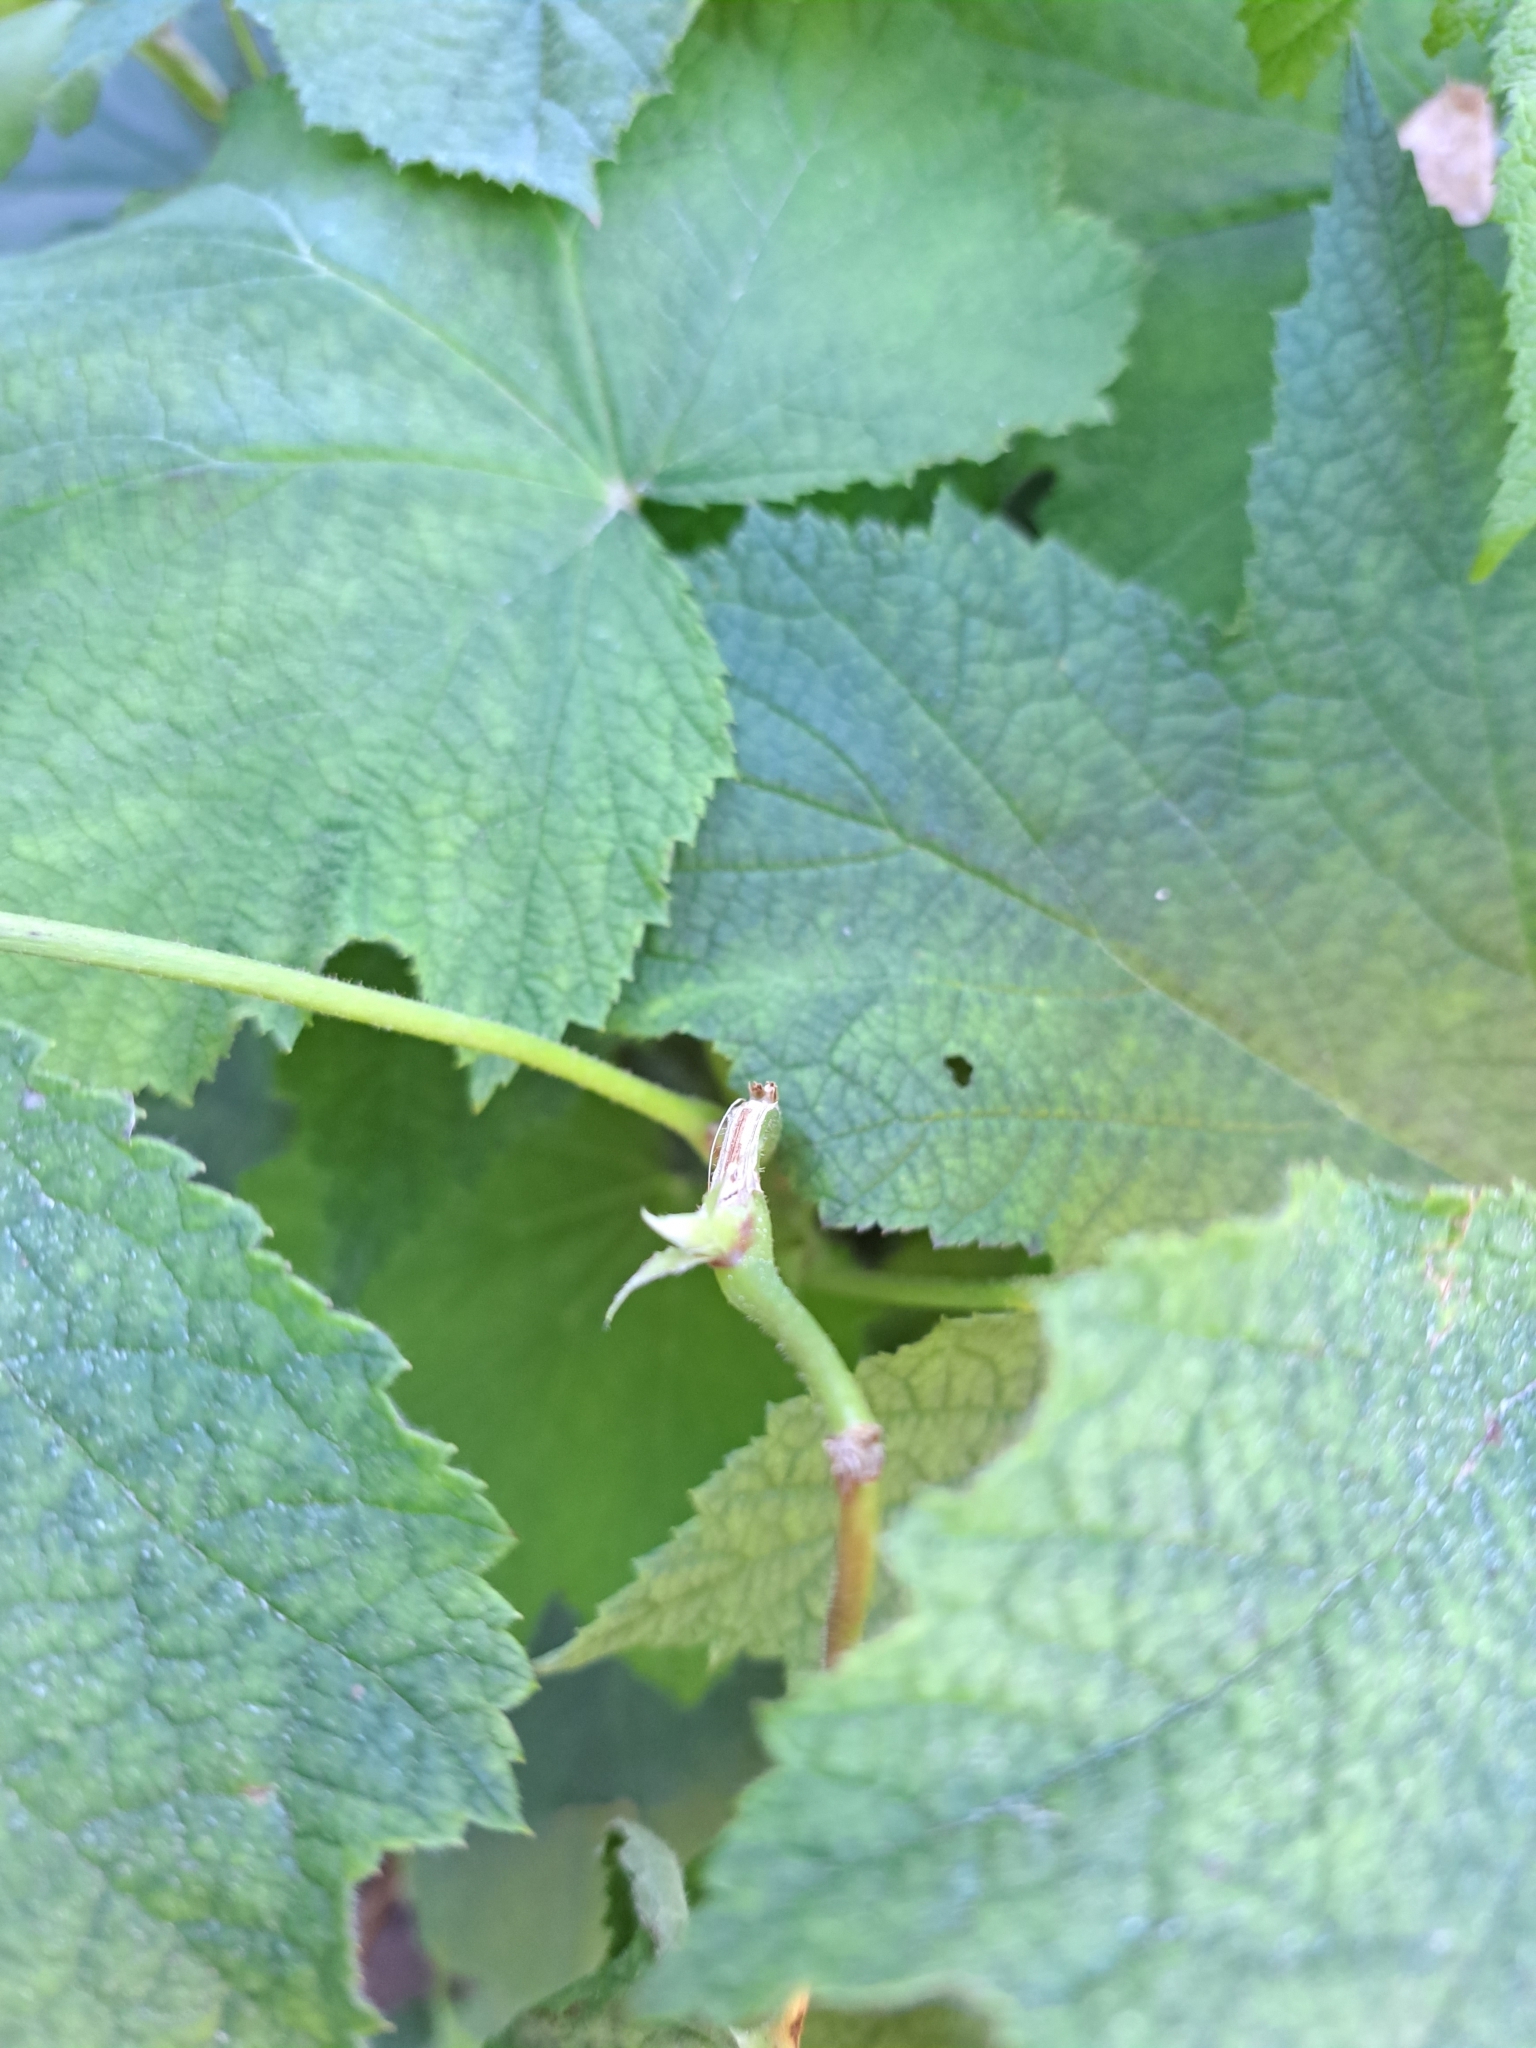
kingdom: Plantae
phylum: Tracheophyta
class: Magnoliopsida
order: Rosales
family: Rosaceae
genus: Rubus
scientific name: Rubus parviflorus
